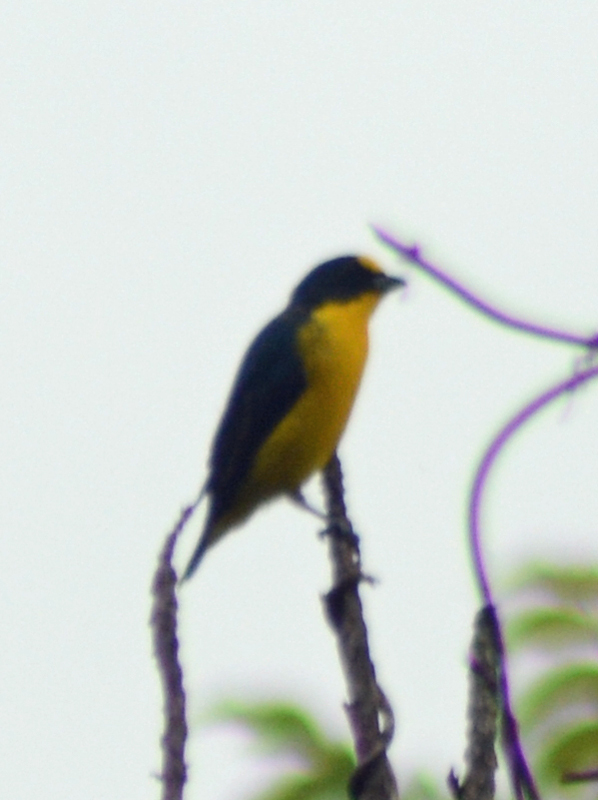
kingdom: Animalia
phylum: Chordata
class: Aves
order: Passeriformes
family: Fringillidae
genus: Euphonia
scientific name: Euphonia hirundinacea
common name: Yellow-throated euphonia
